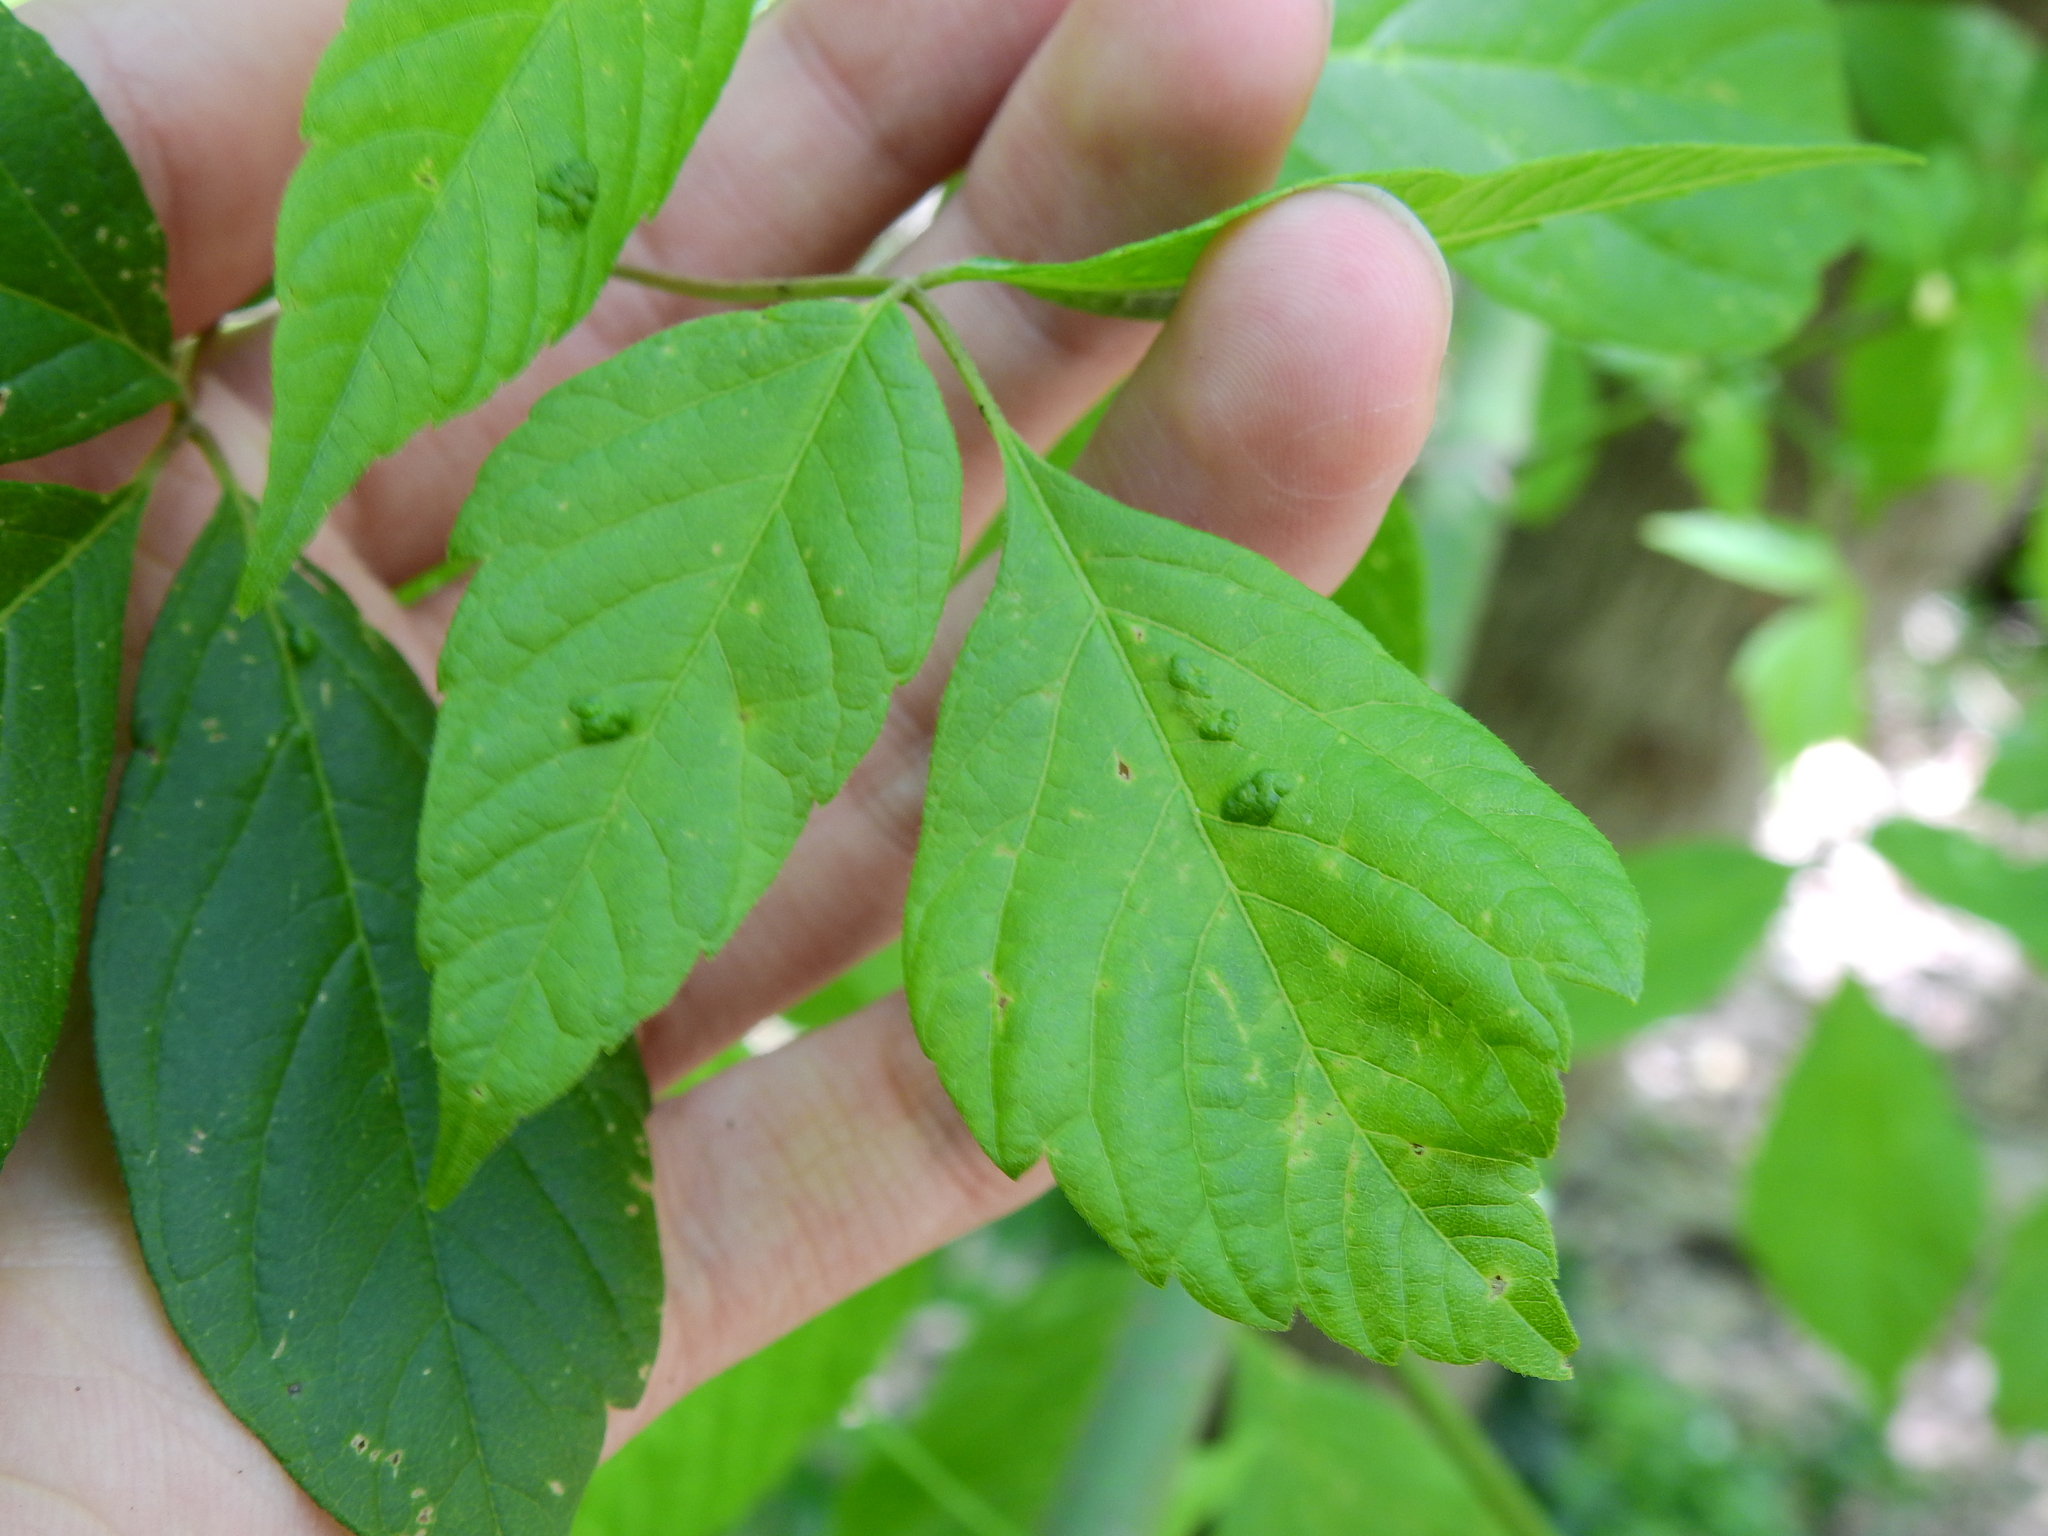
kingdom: Animalia
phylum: Arthropoda
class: Arachnida
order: Trombidiformes
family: Eriophyidae
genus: Aceria
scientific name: Aceria
